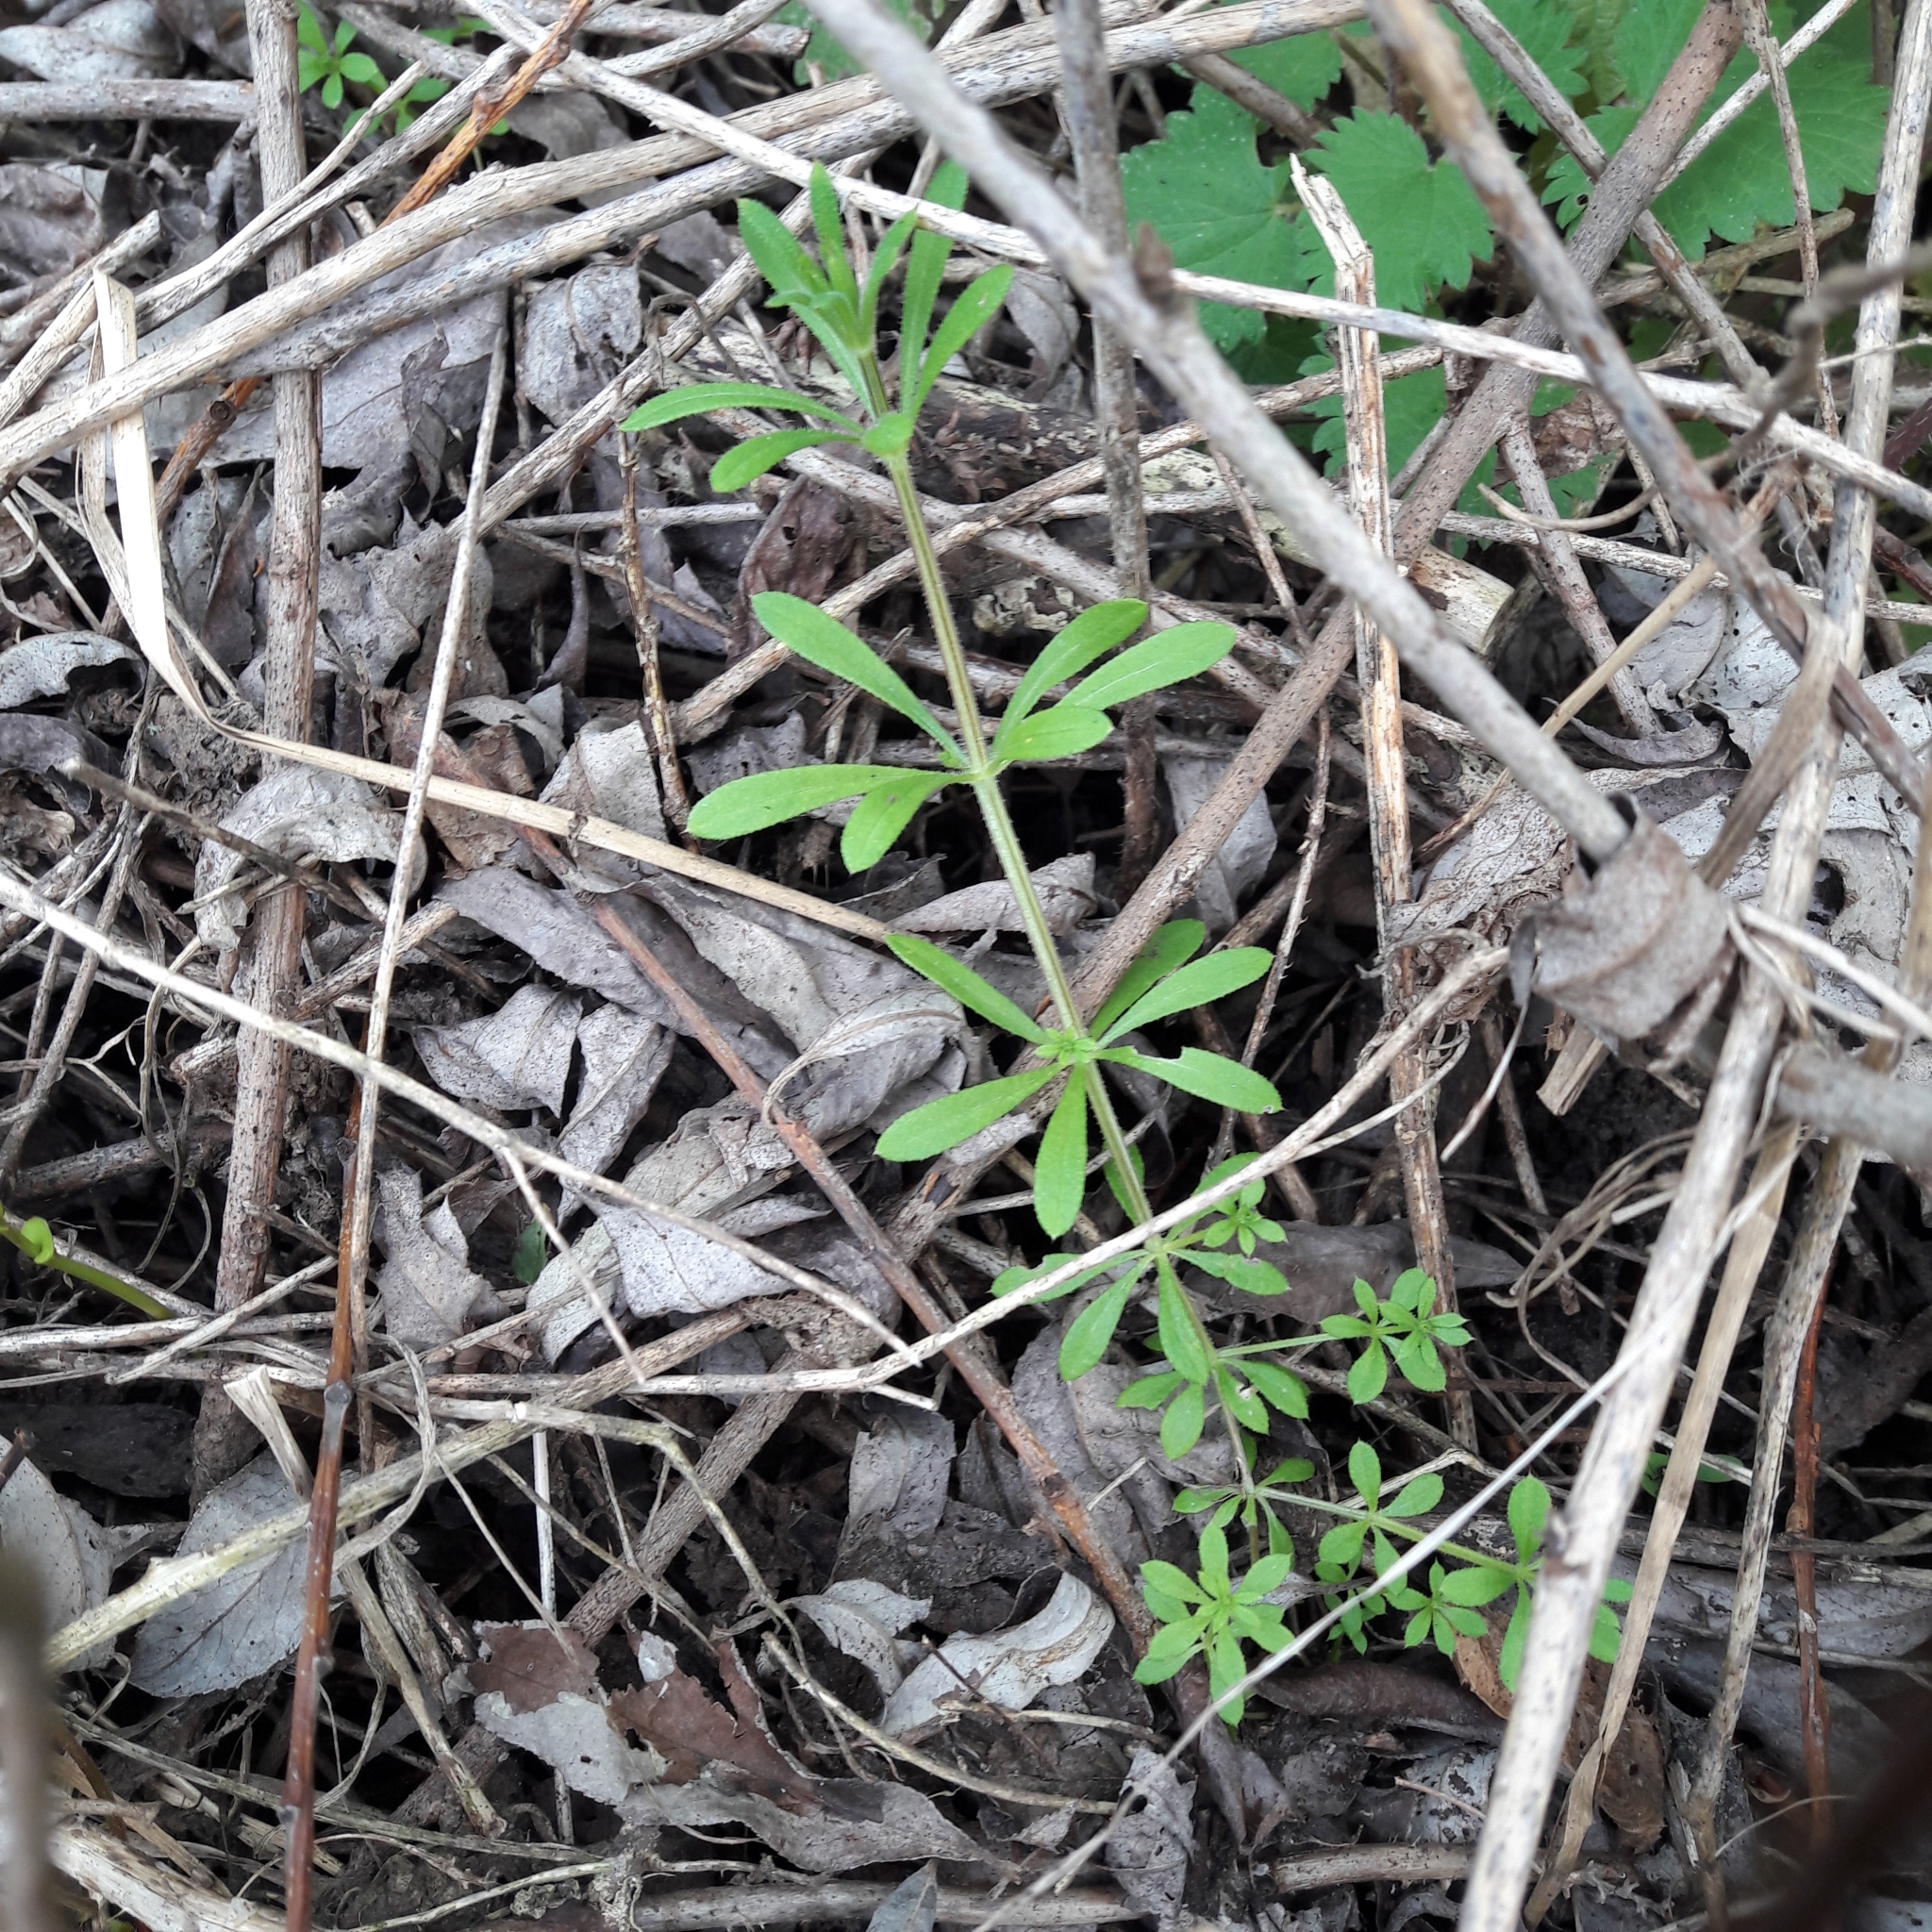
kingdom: Plantae
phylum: Tracheophyta
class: Magnoliopsida
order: Gentianales
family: Rubiaceae
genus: Galium
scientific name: Galium aparine
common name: Cleavers
